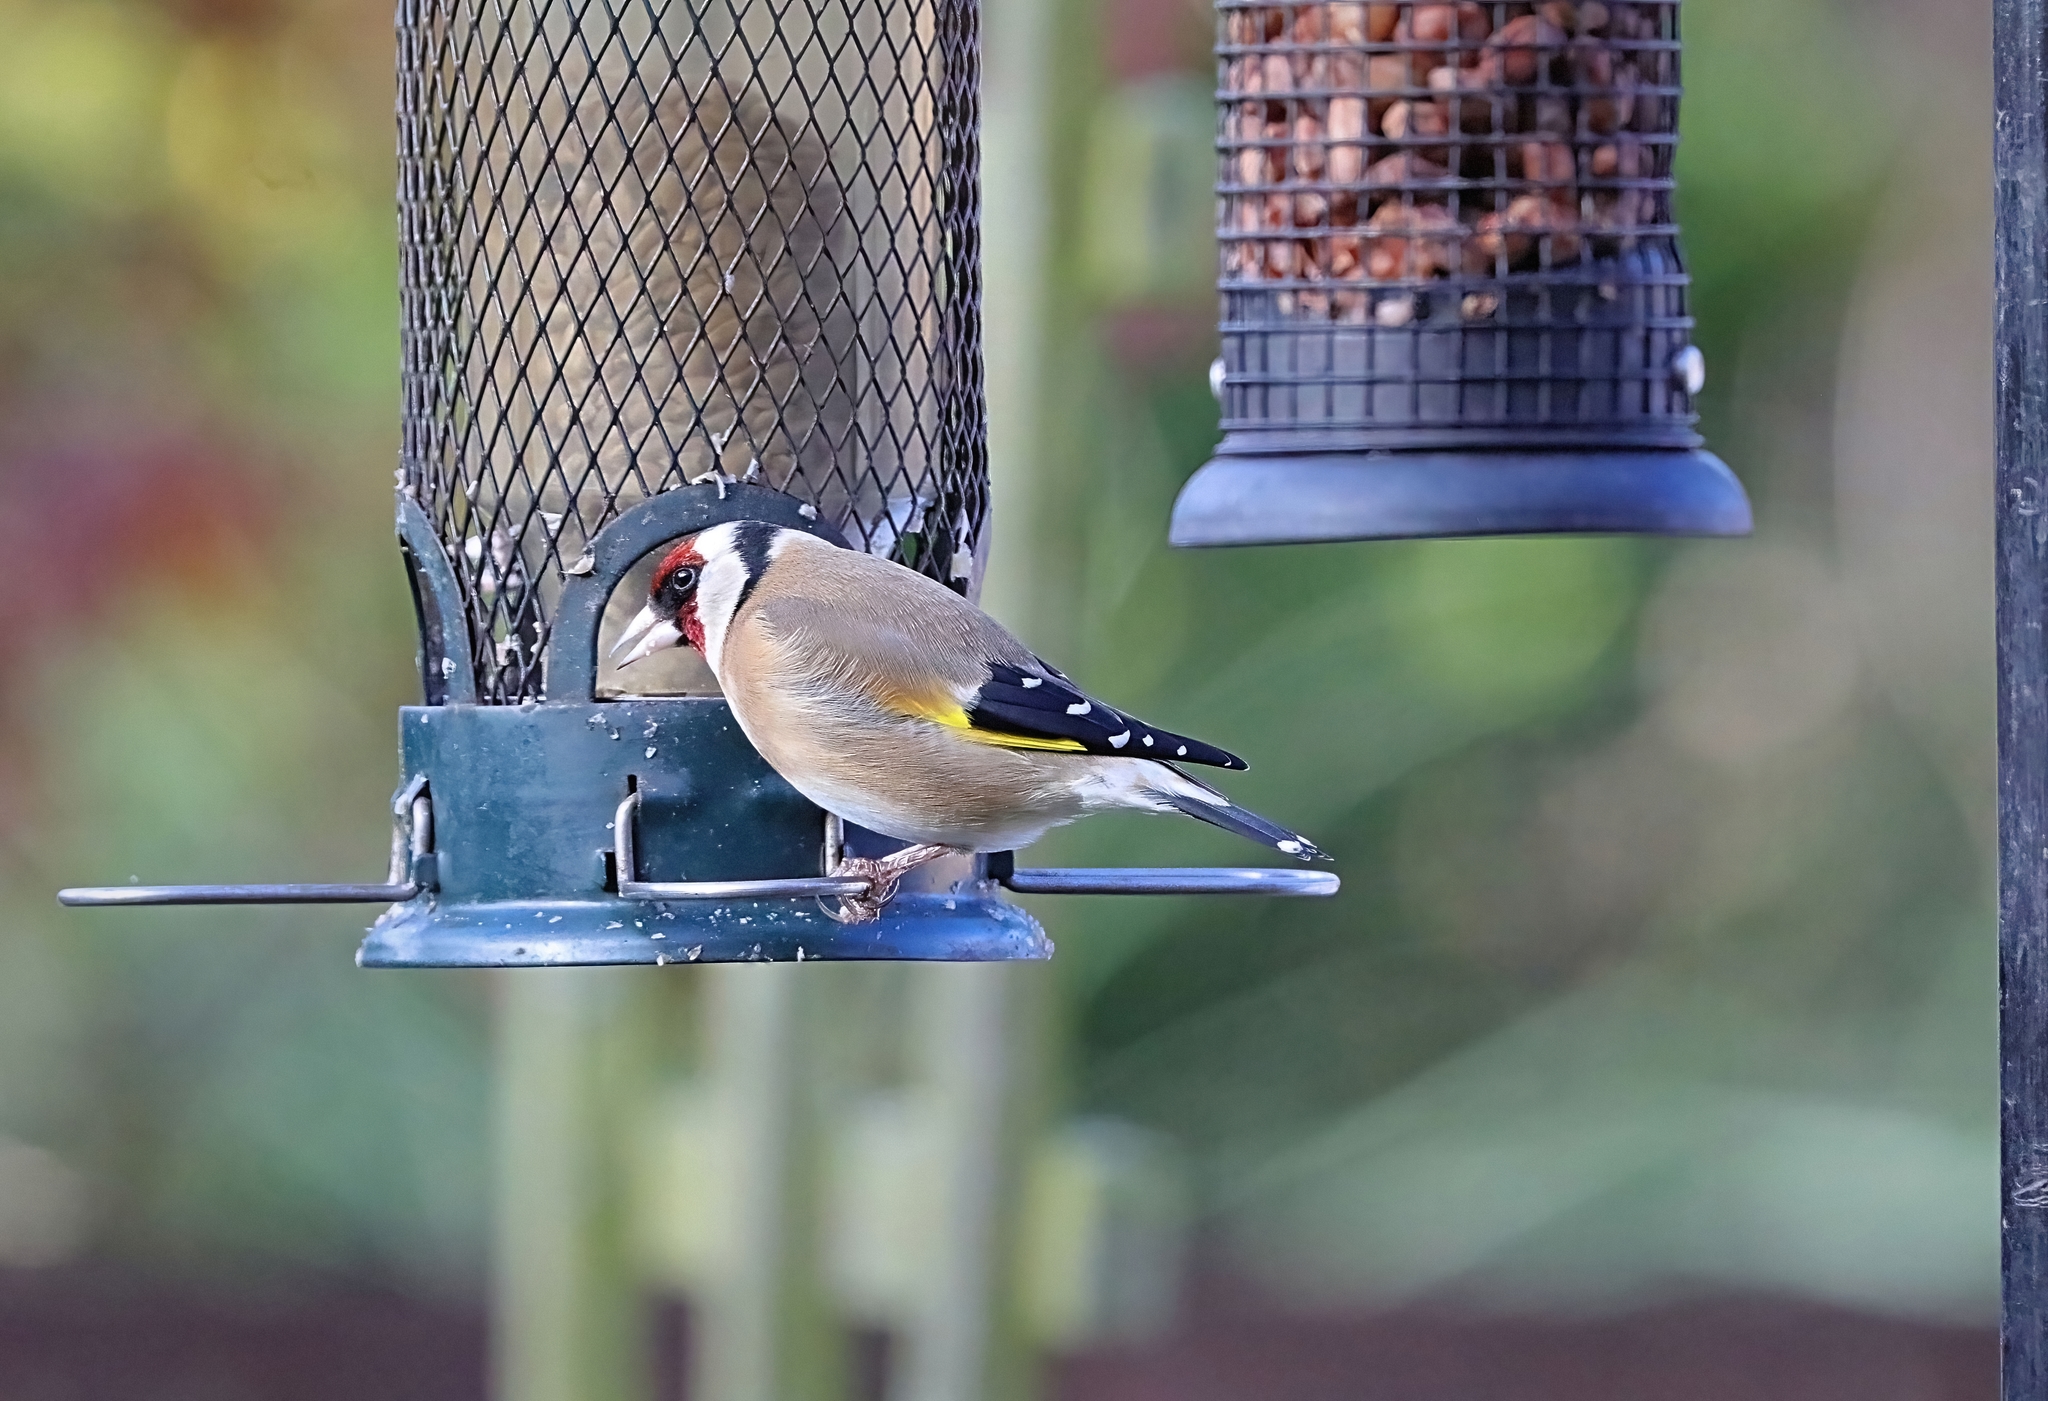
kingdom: Animalia
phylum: Chordata
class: Aves
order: Passeriformes
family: Fringillidae
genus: Carduelis
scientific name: Carduelis carduelis
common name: European goldfinch
